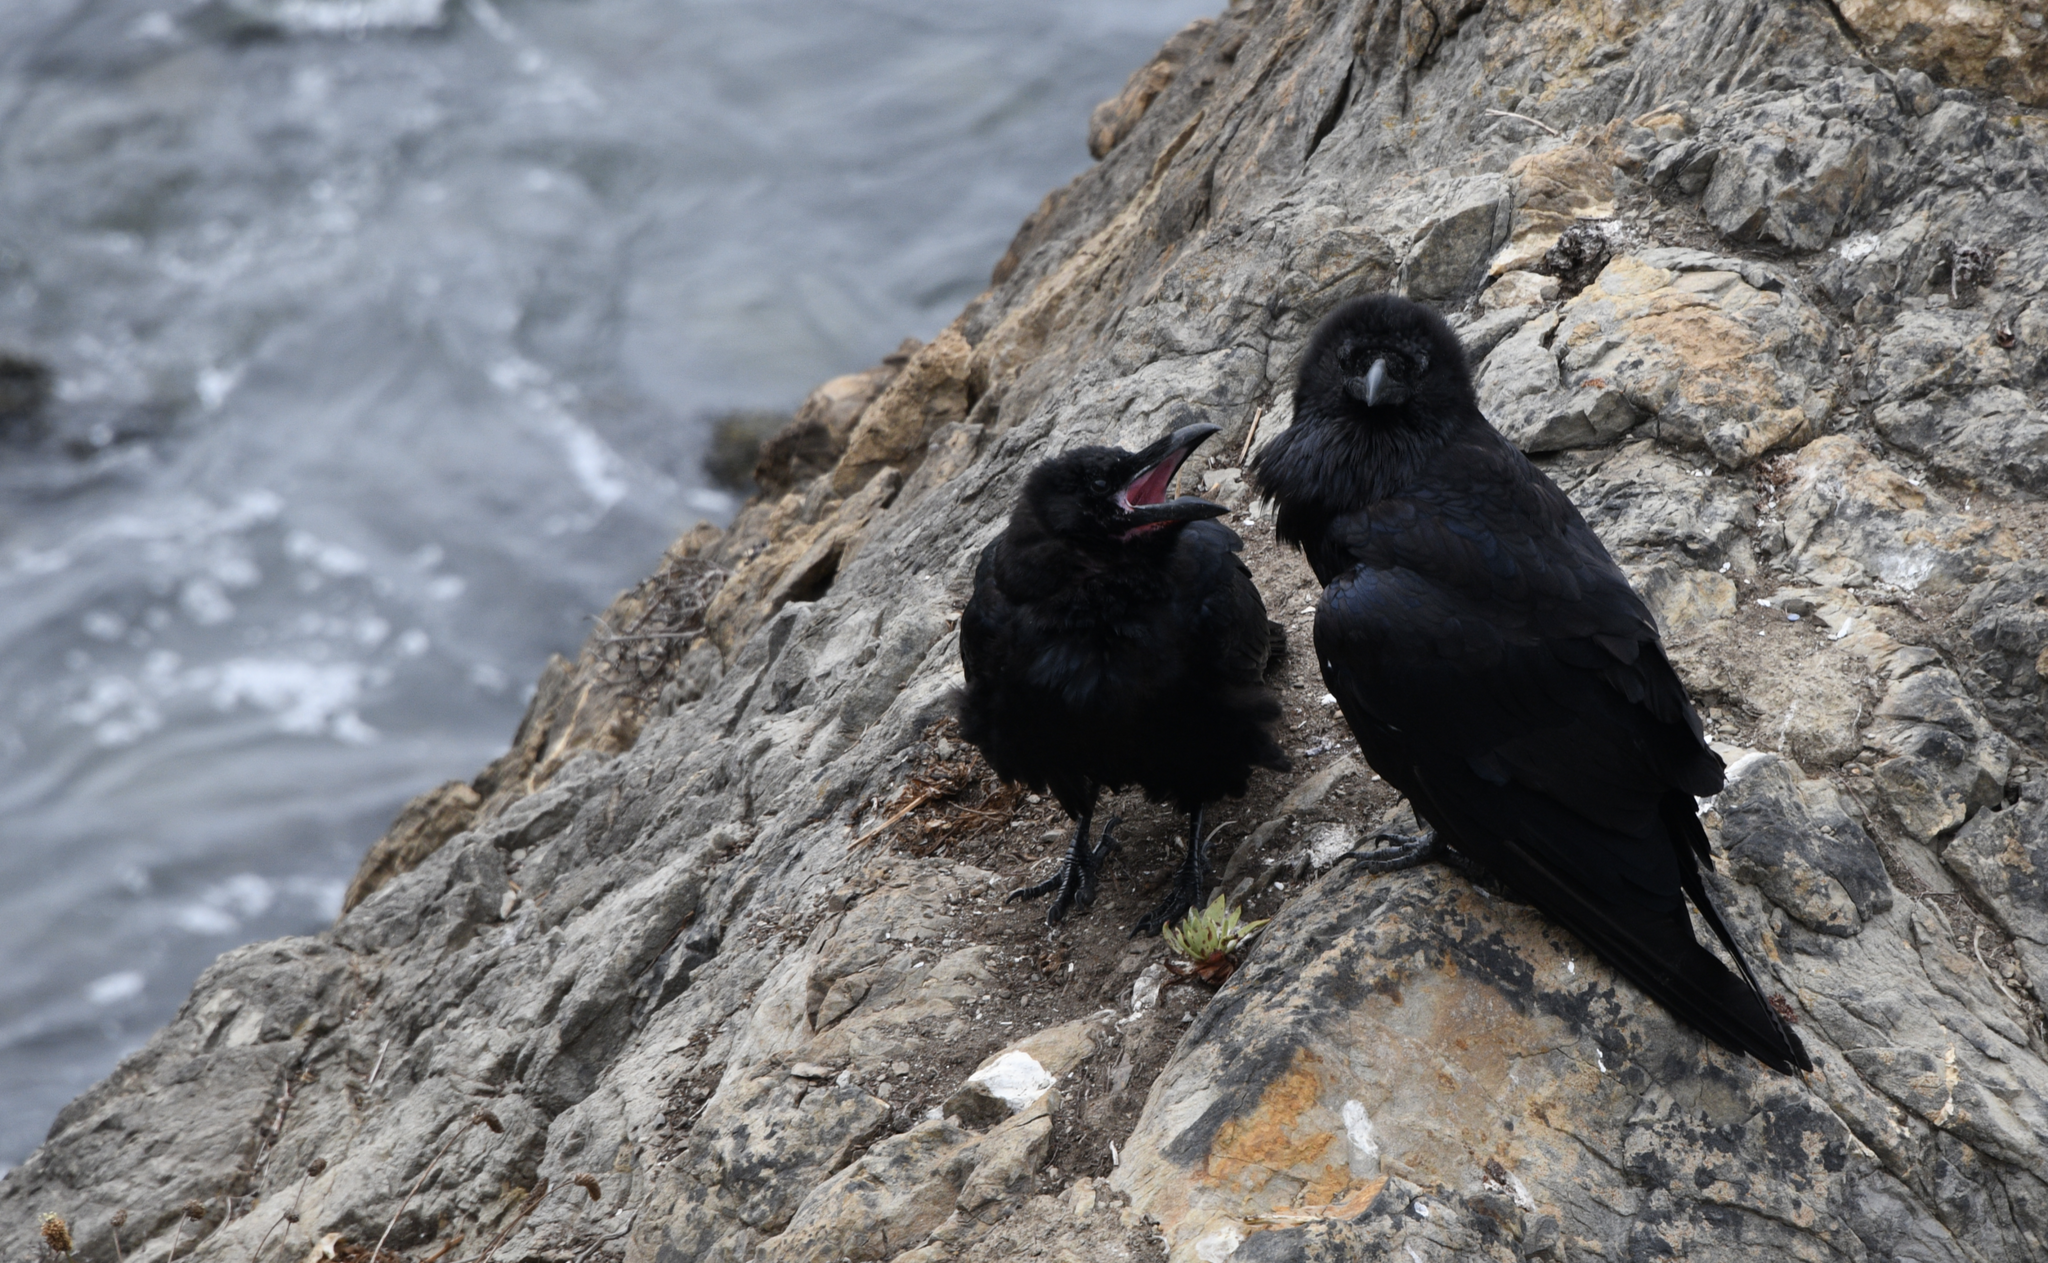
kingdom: Animalia
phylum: Chordata
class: Aves
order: Passeriformes
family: Corvidae
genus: Corvus
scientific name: Corvus corax
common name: Common raven
